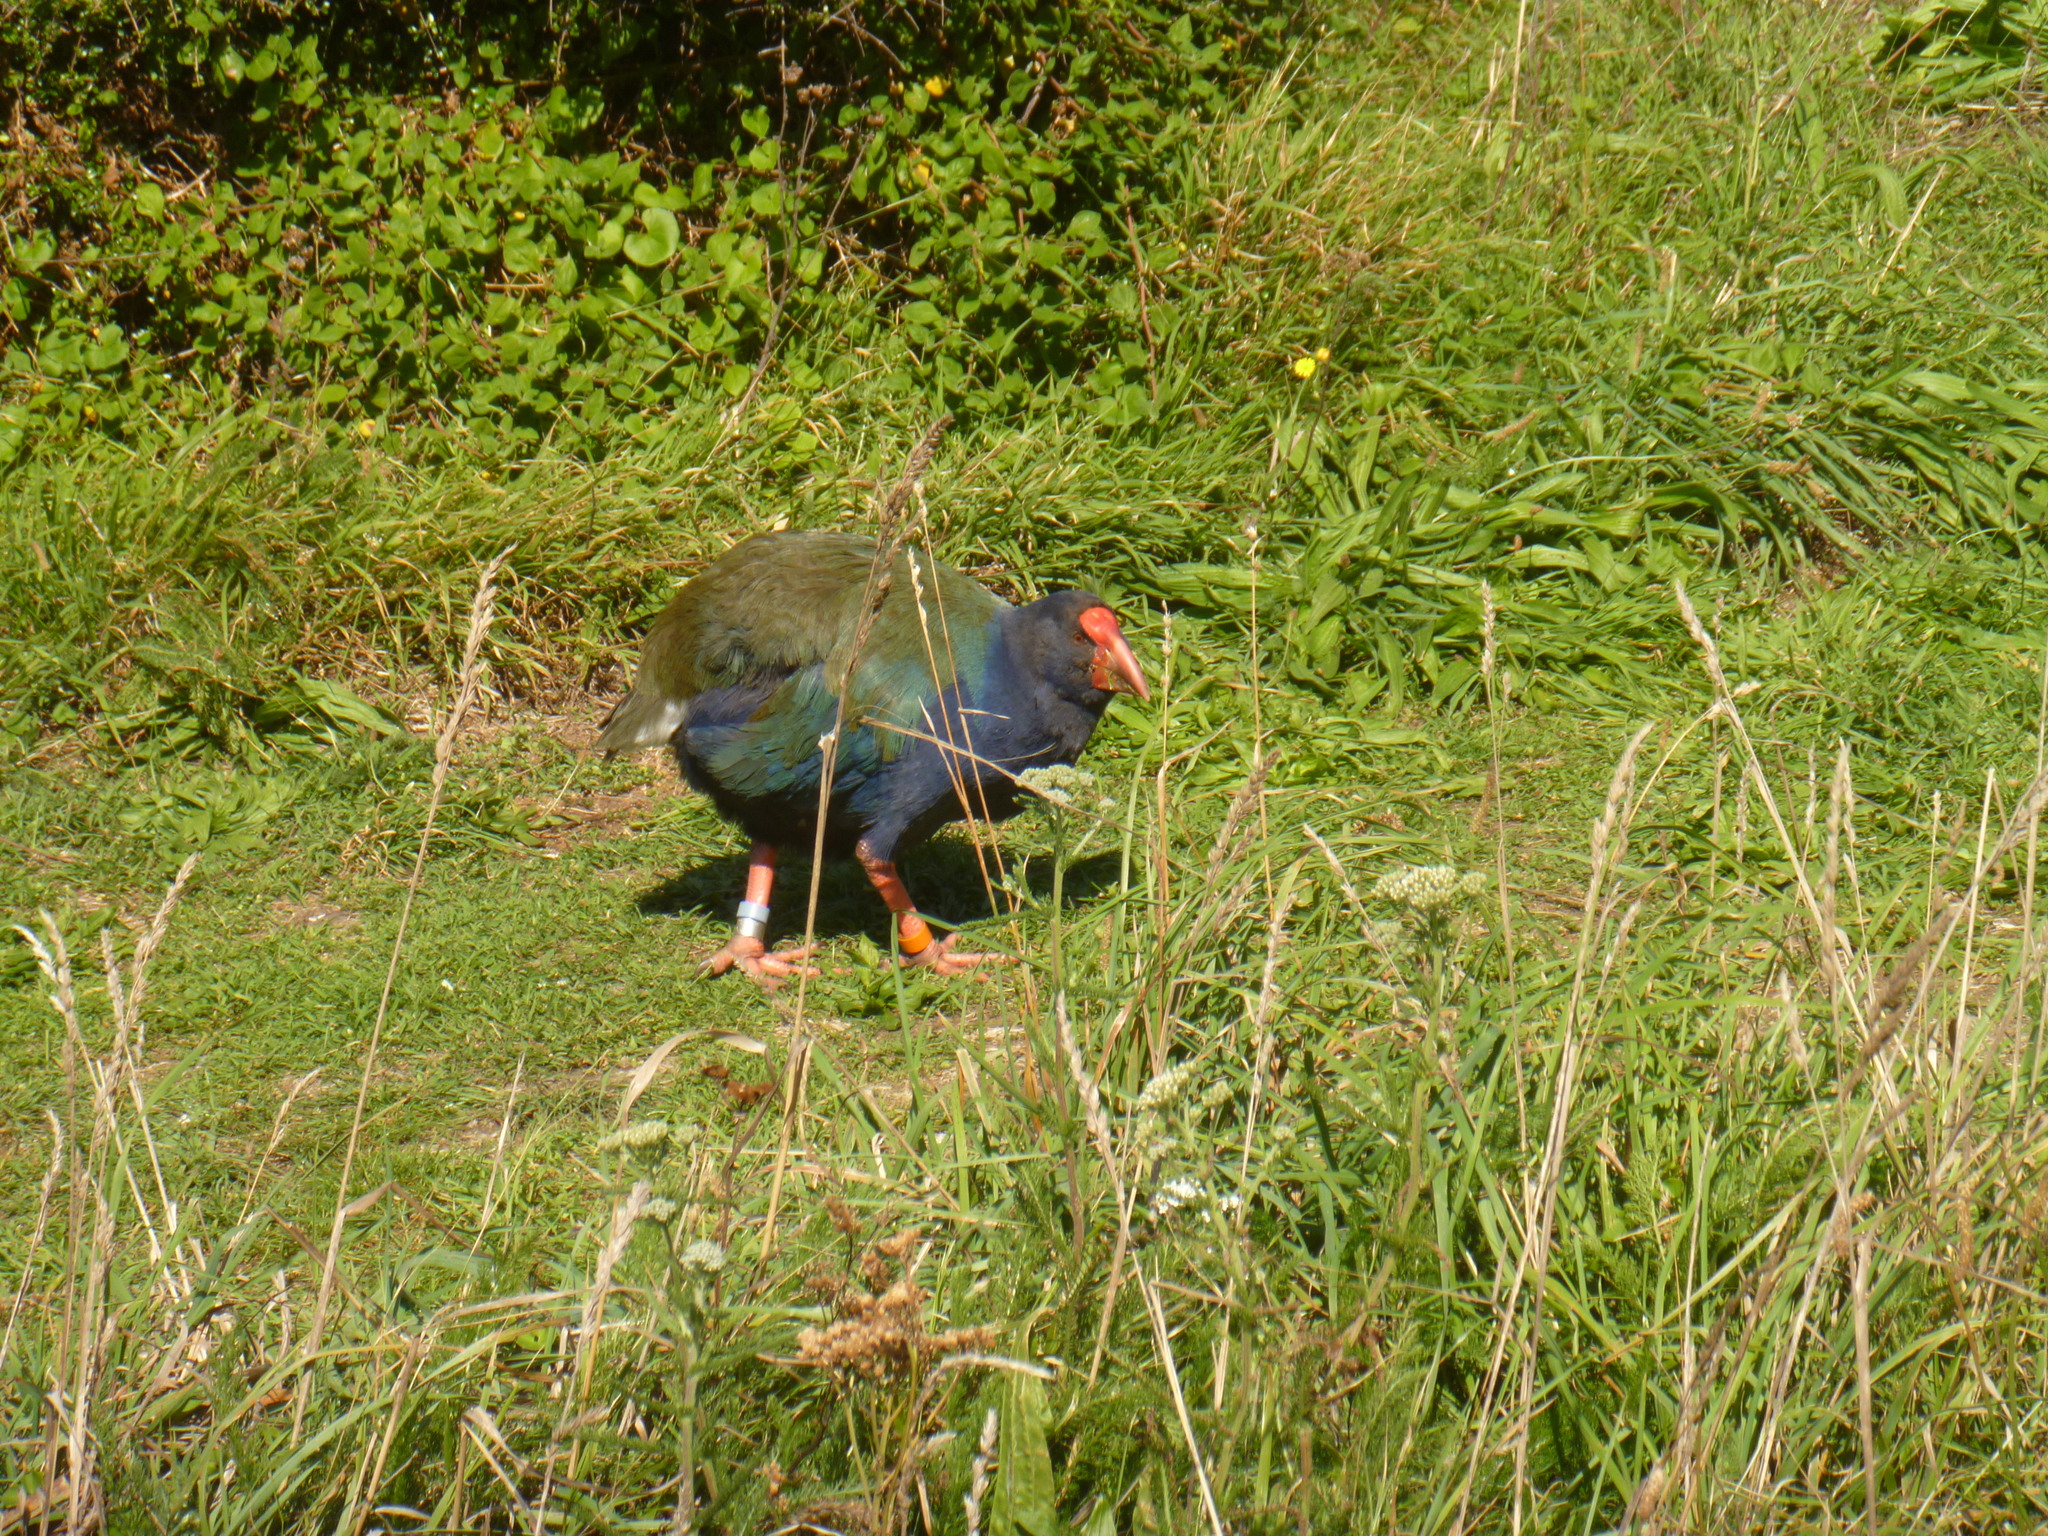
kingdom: Animalia
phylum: Chordata
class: Aves
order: Gruiformes
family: Rallidae
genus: Porphyrio
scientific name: Porphyrio hochstetteri
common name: South island takahe
